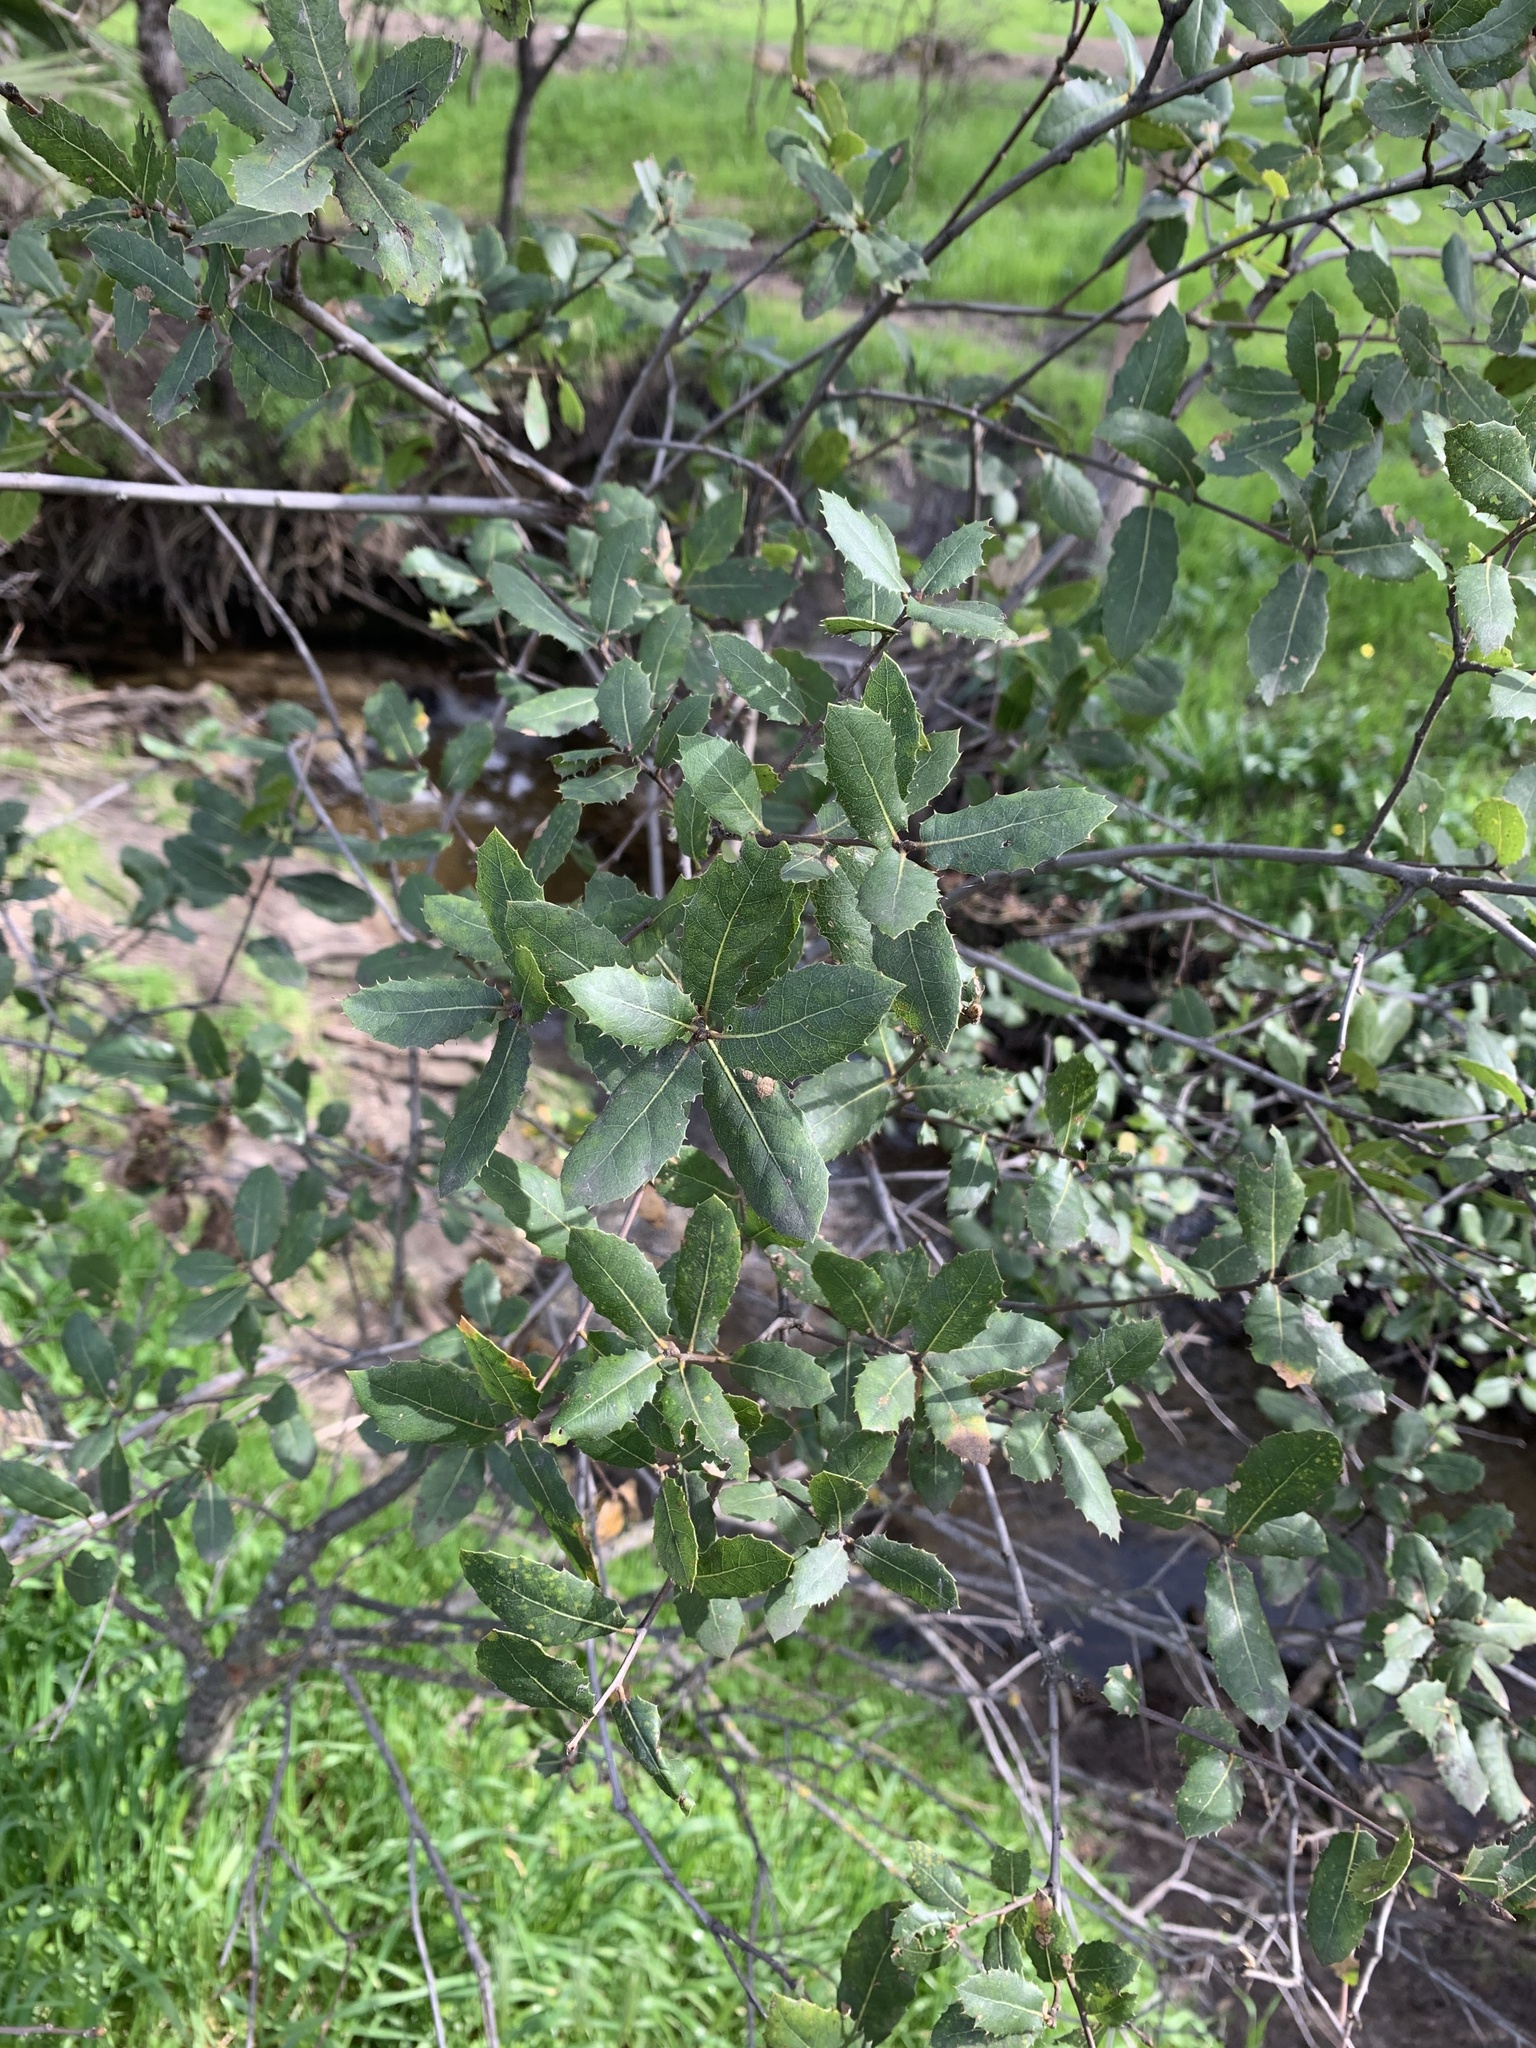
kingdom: Plantae
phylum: Tracheophyta
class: Magnoliopsida
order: Fagales
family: Fagaceae
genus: Quercus
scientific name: Quercus wislizeni
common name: Interior live oak
